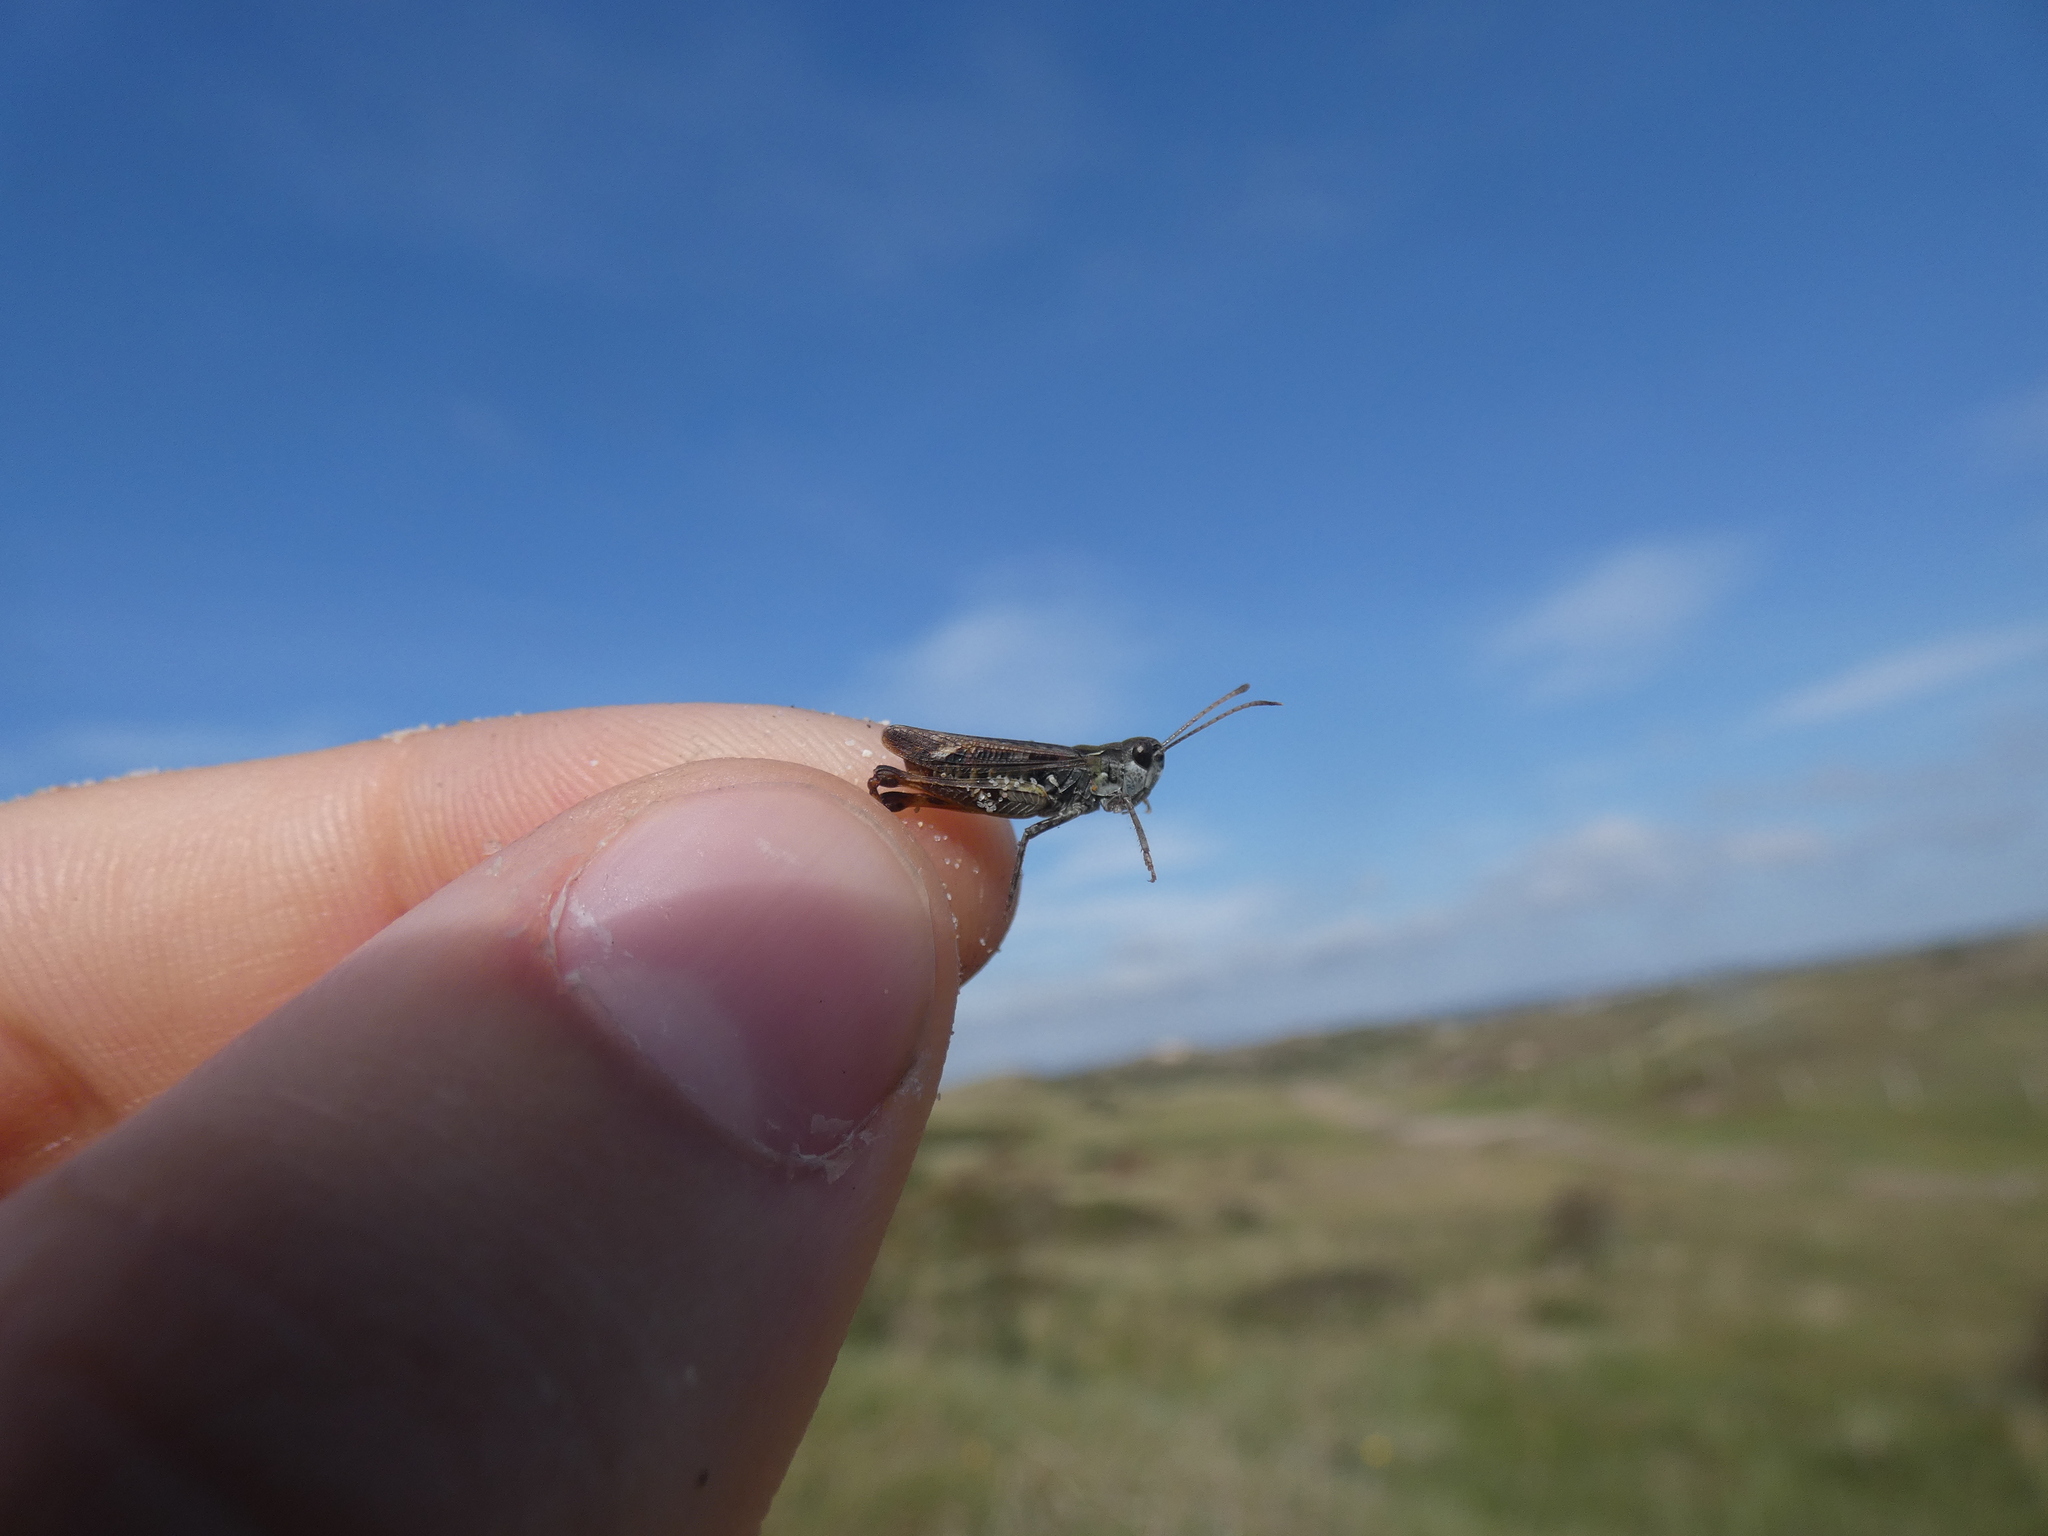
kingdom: Animalia
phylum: Arthropoda
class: Insecta
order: Orthoptera
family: Acrididae
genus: Myrmeleotettix
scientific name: Myrmeleotettix maculatus
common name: Mottled grasshopper
